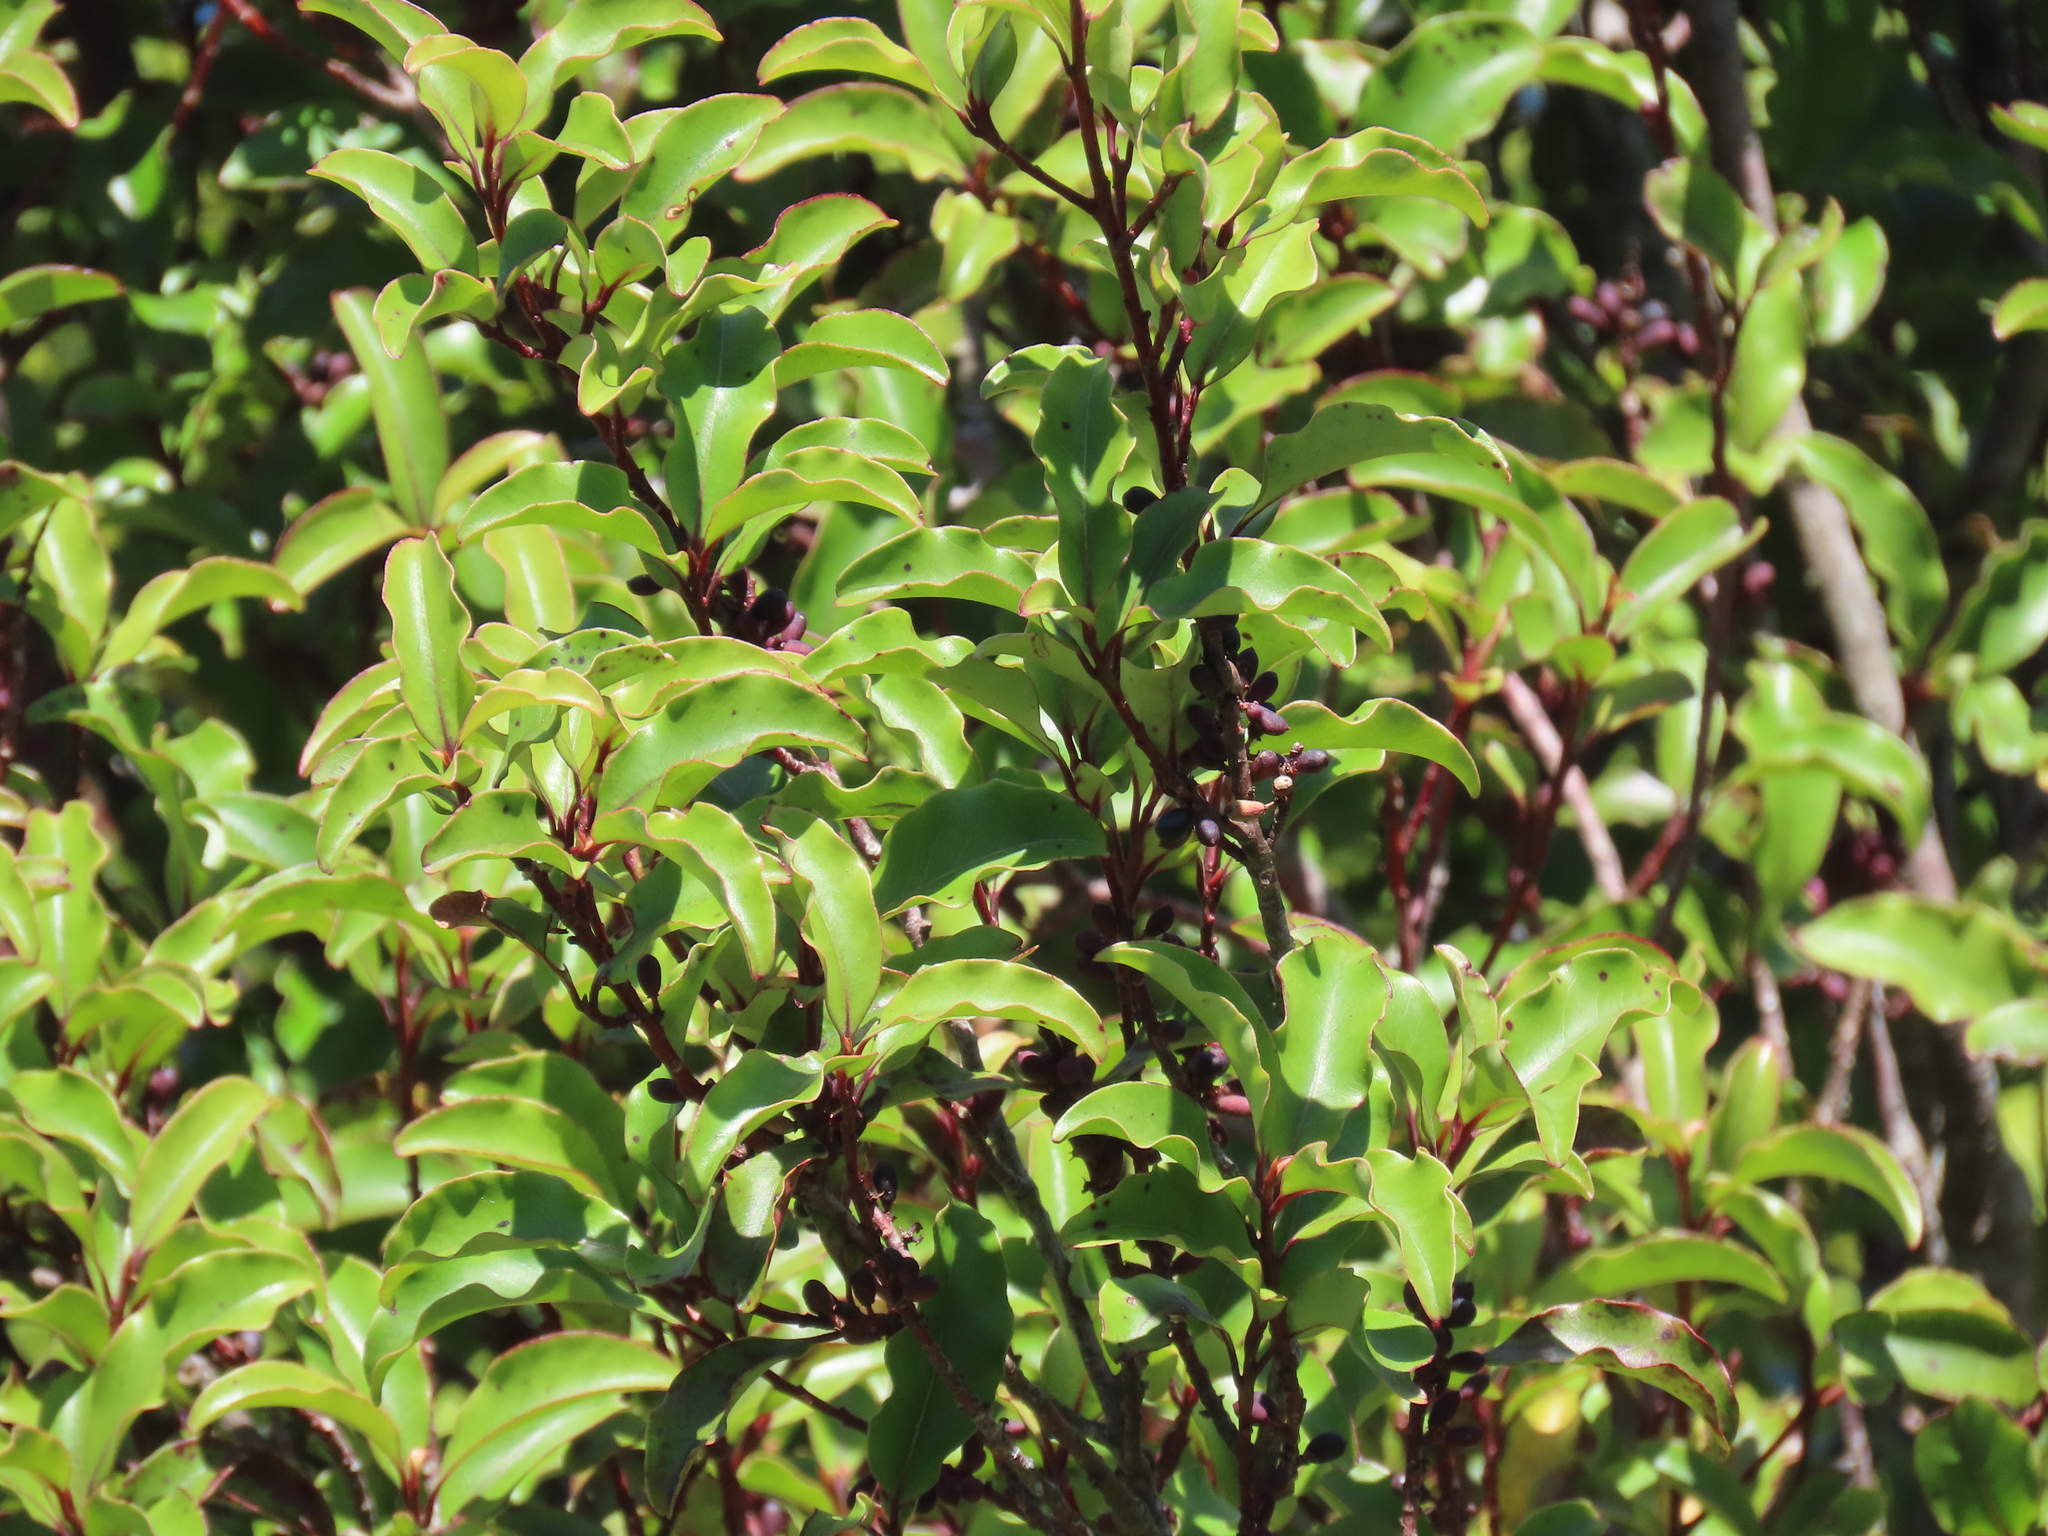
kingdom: Plantae
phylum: Tracheophyta
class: Magnoliopsida
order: Ericales
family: Primulaceae
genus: Myrsine
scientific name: Myrsine australis
